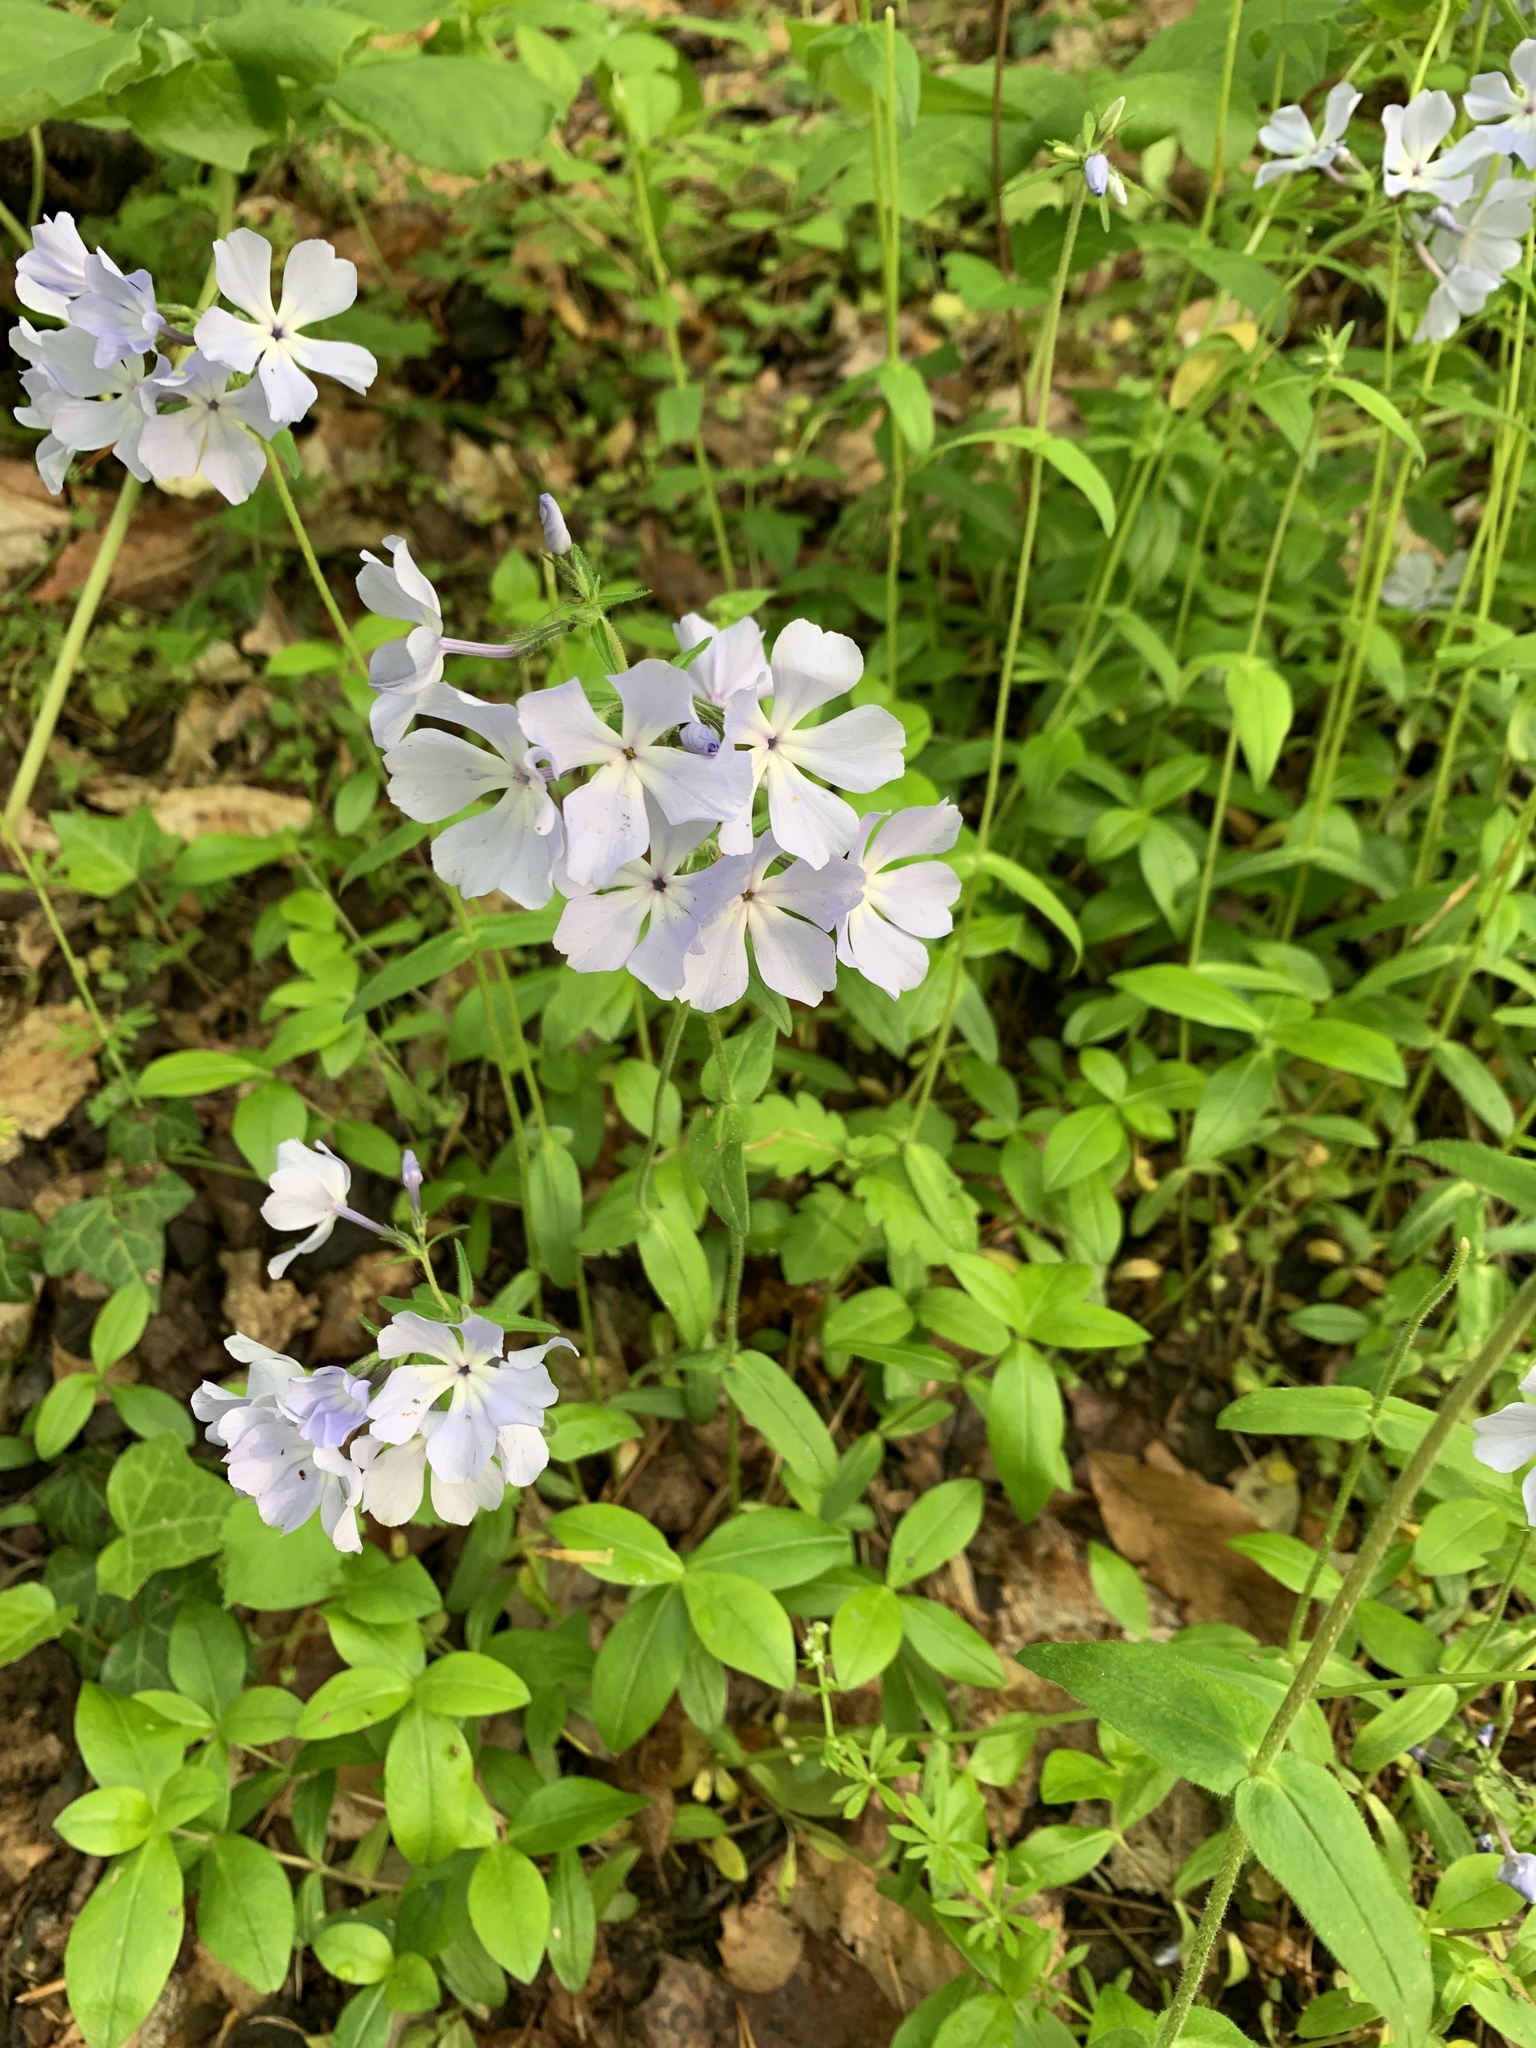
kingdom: Plantae
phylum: Tracheophyta
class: Magnoliopsida
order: Ericales
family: Polemoniaceae
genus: Phlox
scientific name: Phlox divaricata
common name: Blue phlox
